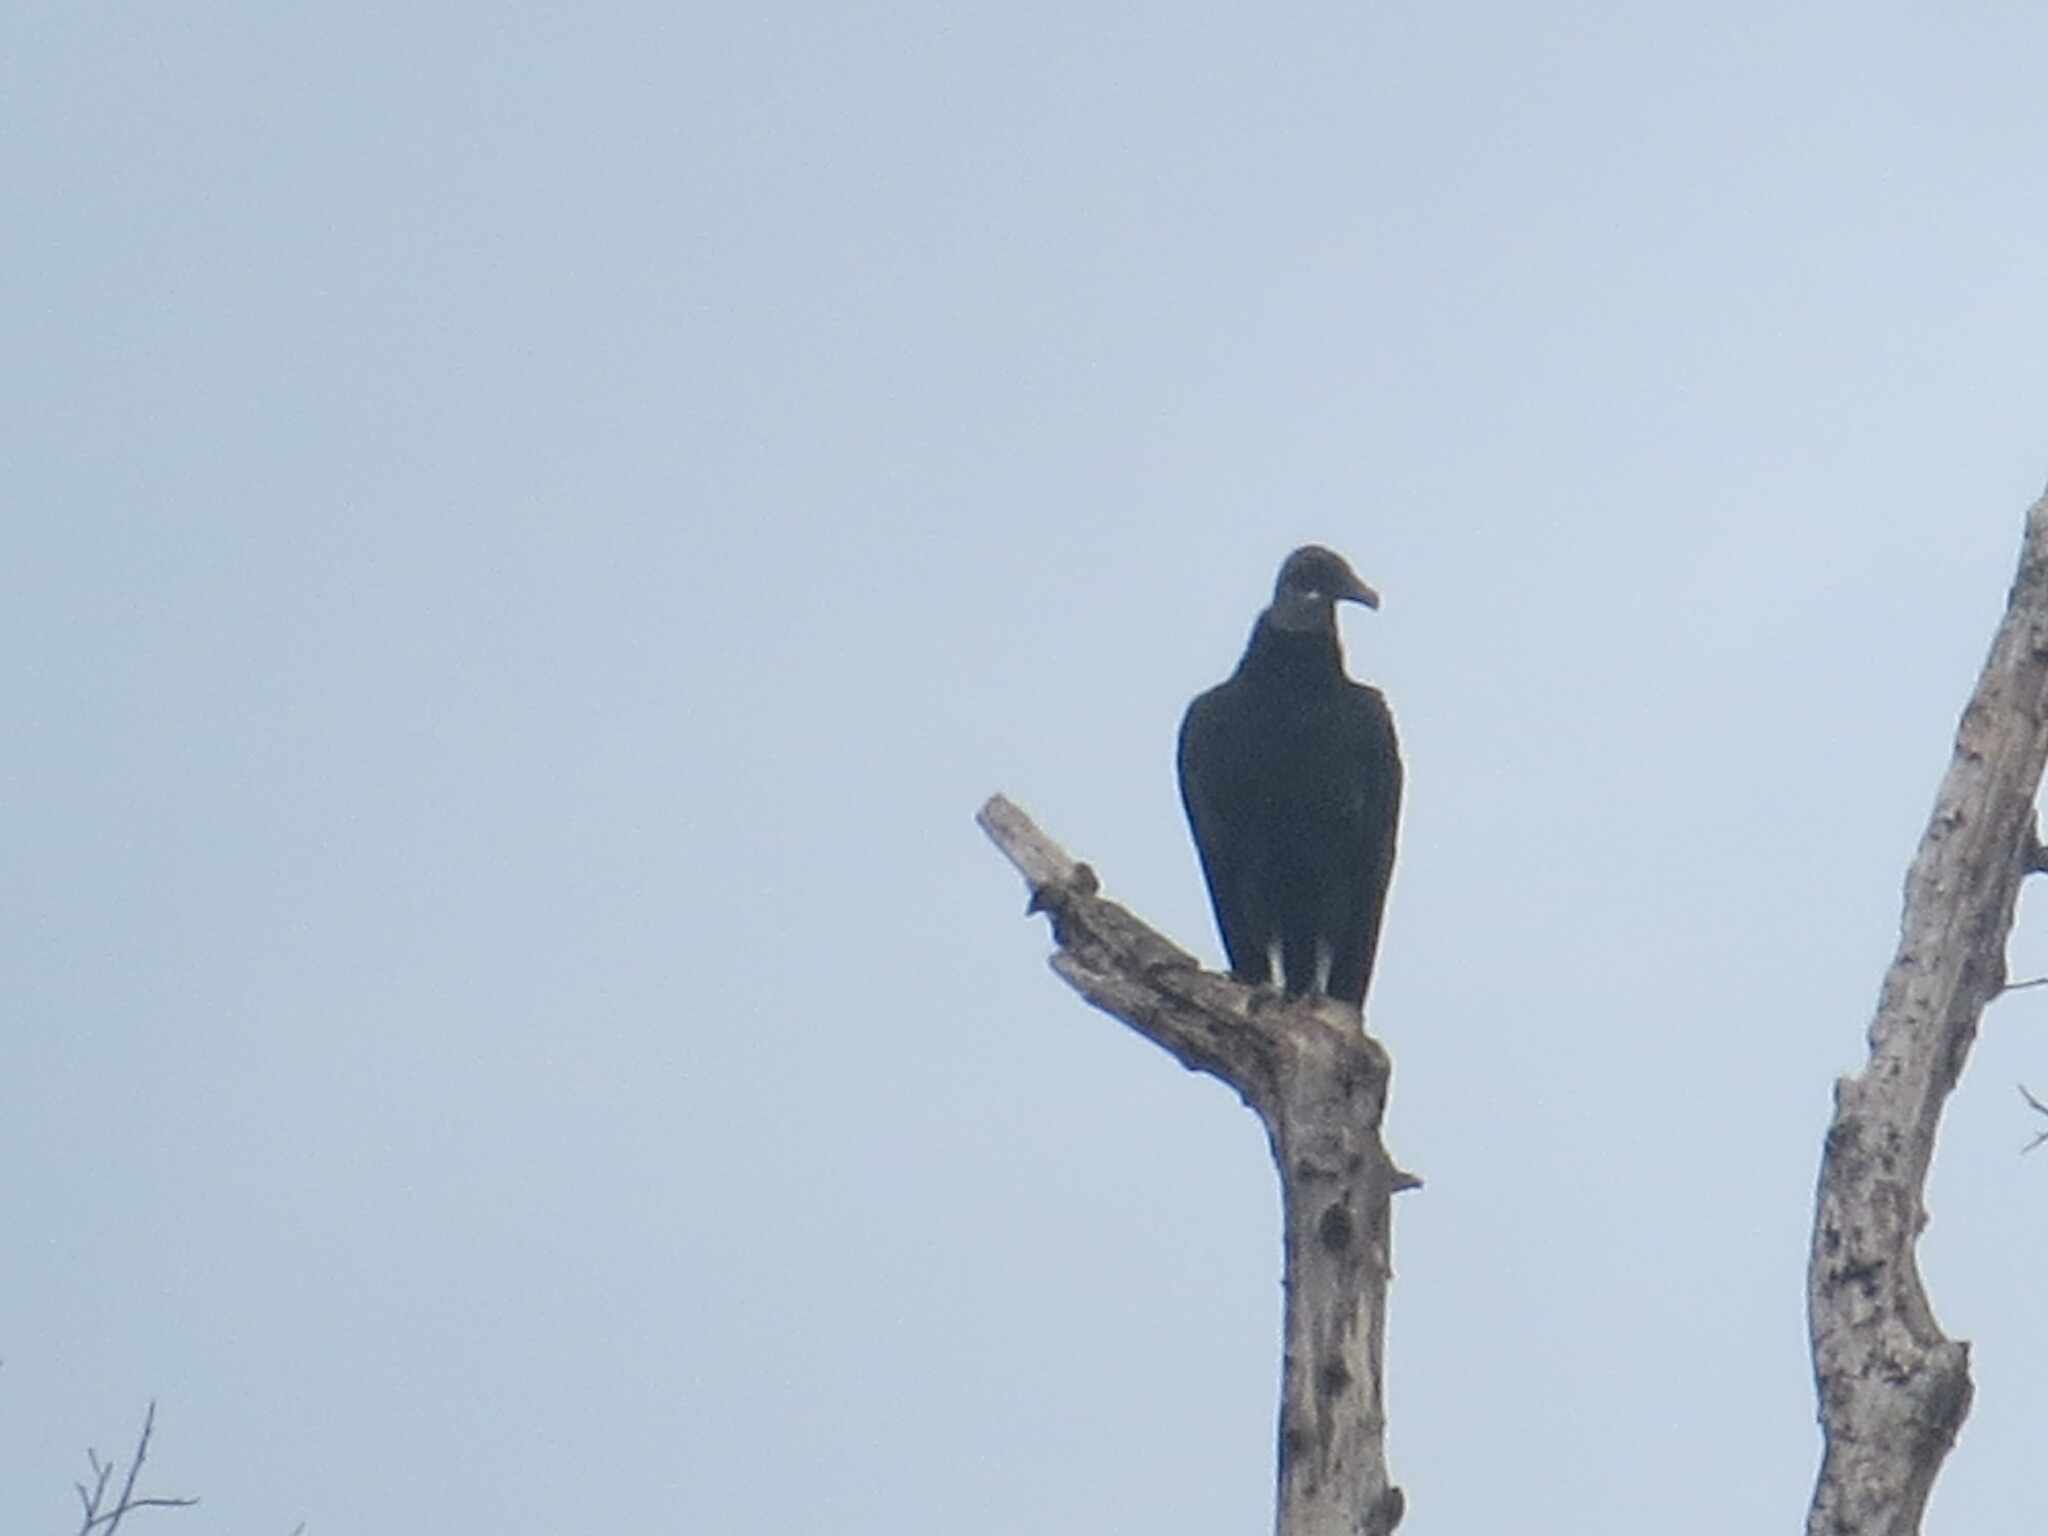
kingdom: Animalia
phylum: Chordata
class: Aves
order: Accipitriformes
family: Cathartidae
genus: Coragyps
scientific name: Coragyps atratus
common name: Black vulture
